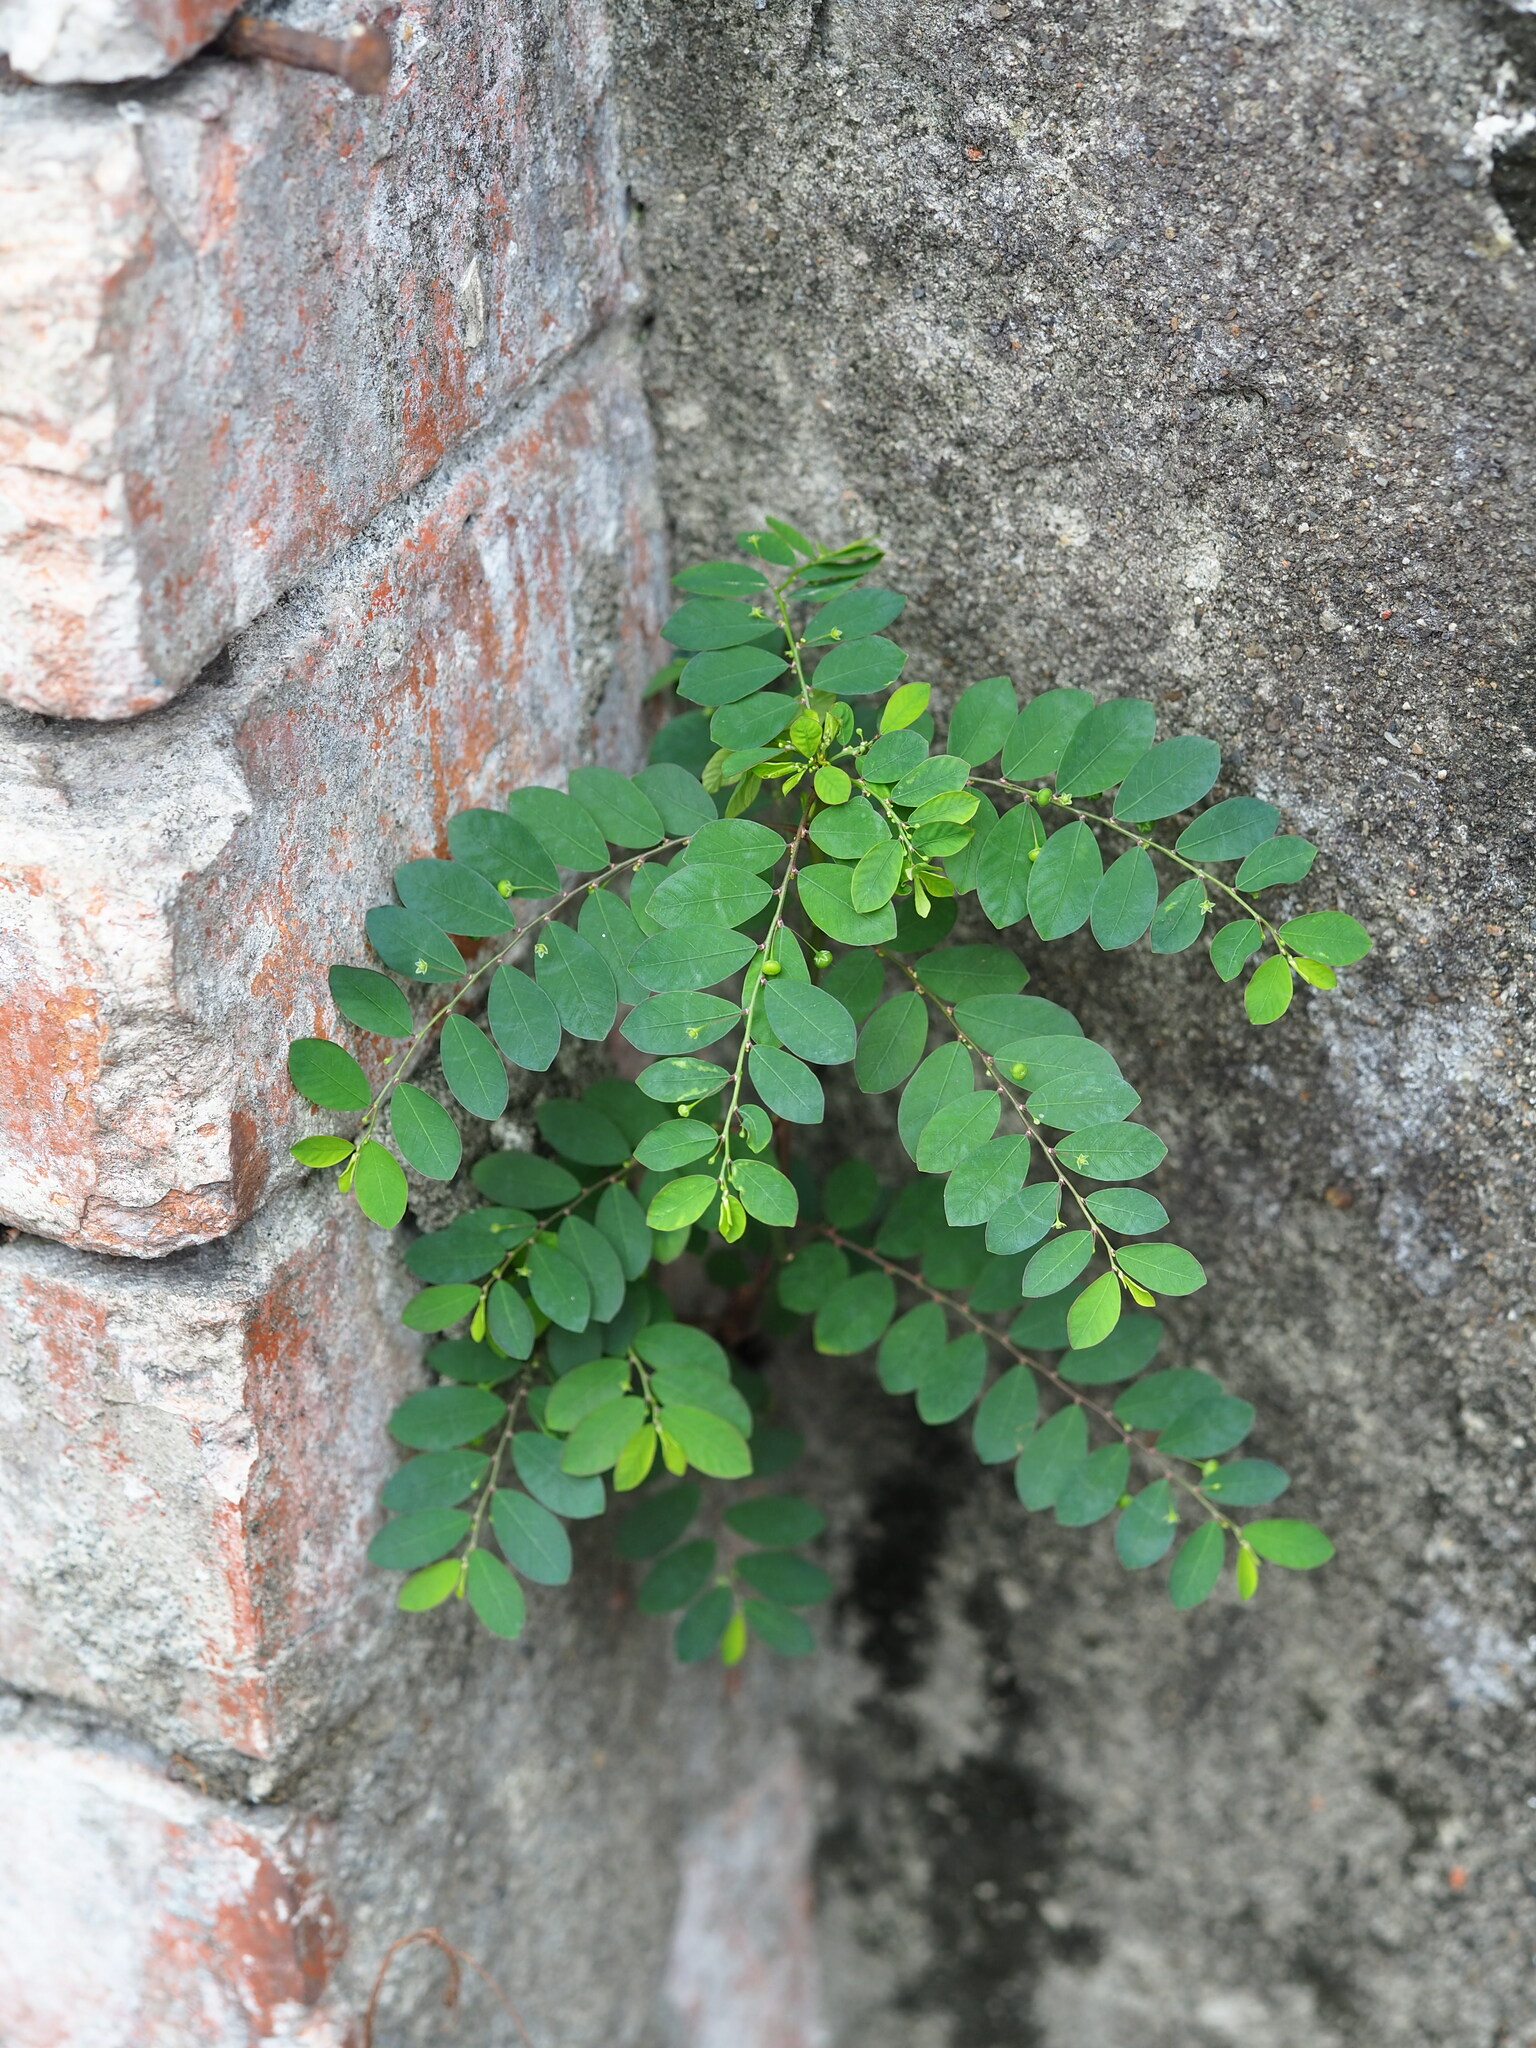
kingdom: Plantae
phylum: Tracheophyta
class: Magnoliopsida
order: Malpighiales
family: Phyllanthaceae
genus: Phyllanthus
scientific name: Phyllanthus tenellus
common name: Mascarene island leaf-flower
